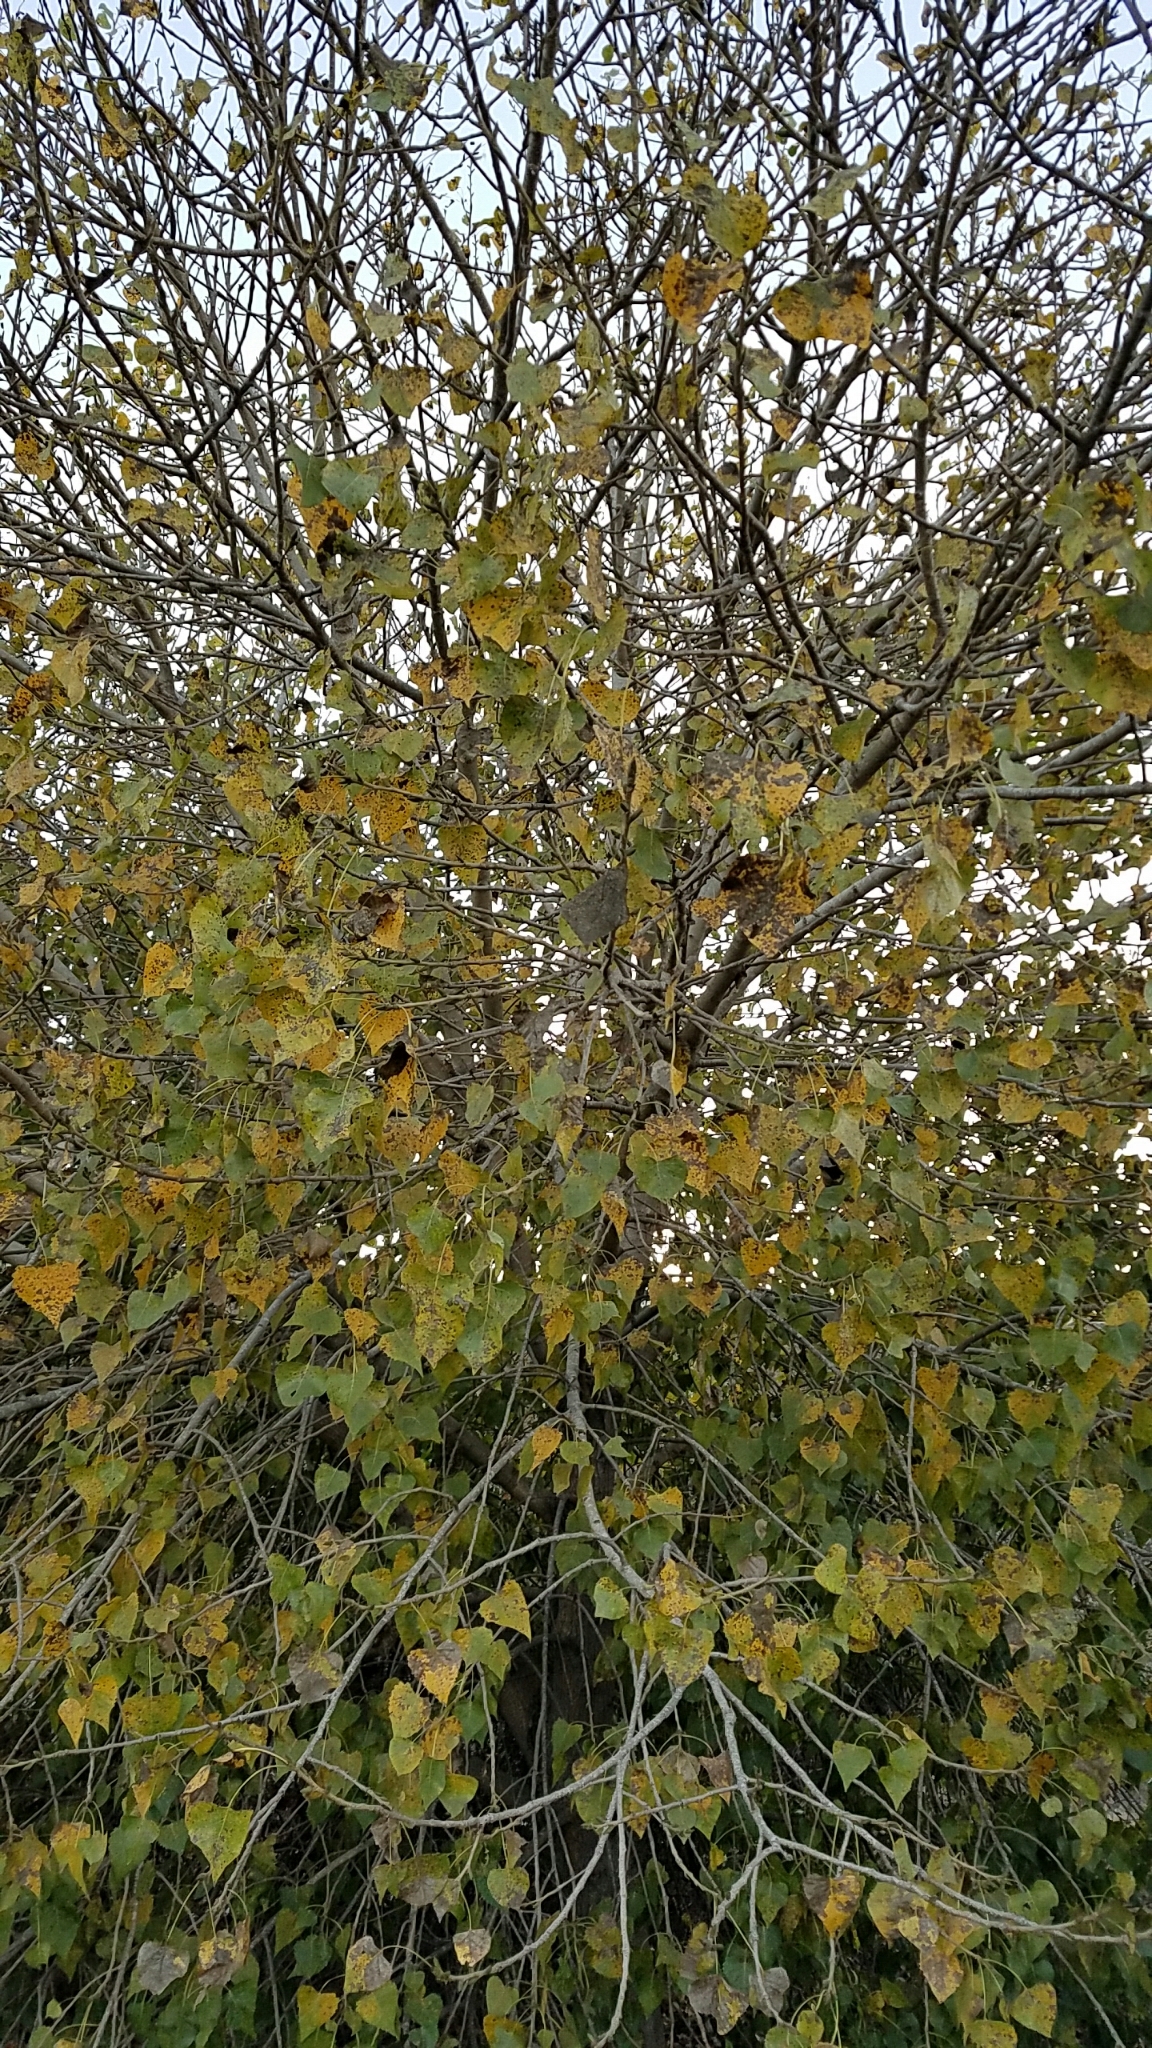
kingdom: Plantae
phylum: Tracheophyta
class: Magnoliopsida
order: Malpighiales
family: Salicaceae
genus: Populus
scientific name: Populus fremontii
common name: Fremont's cottonwood
